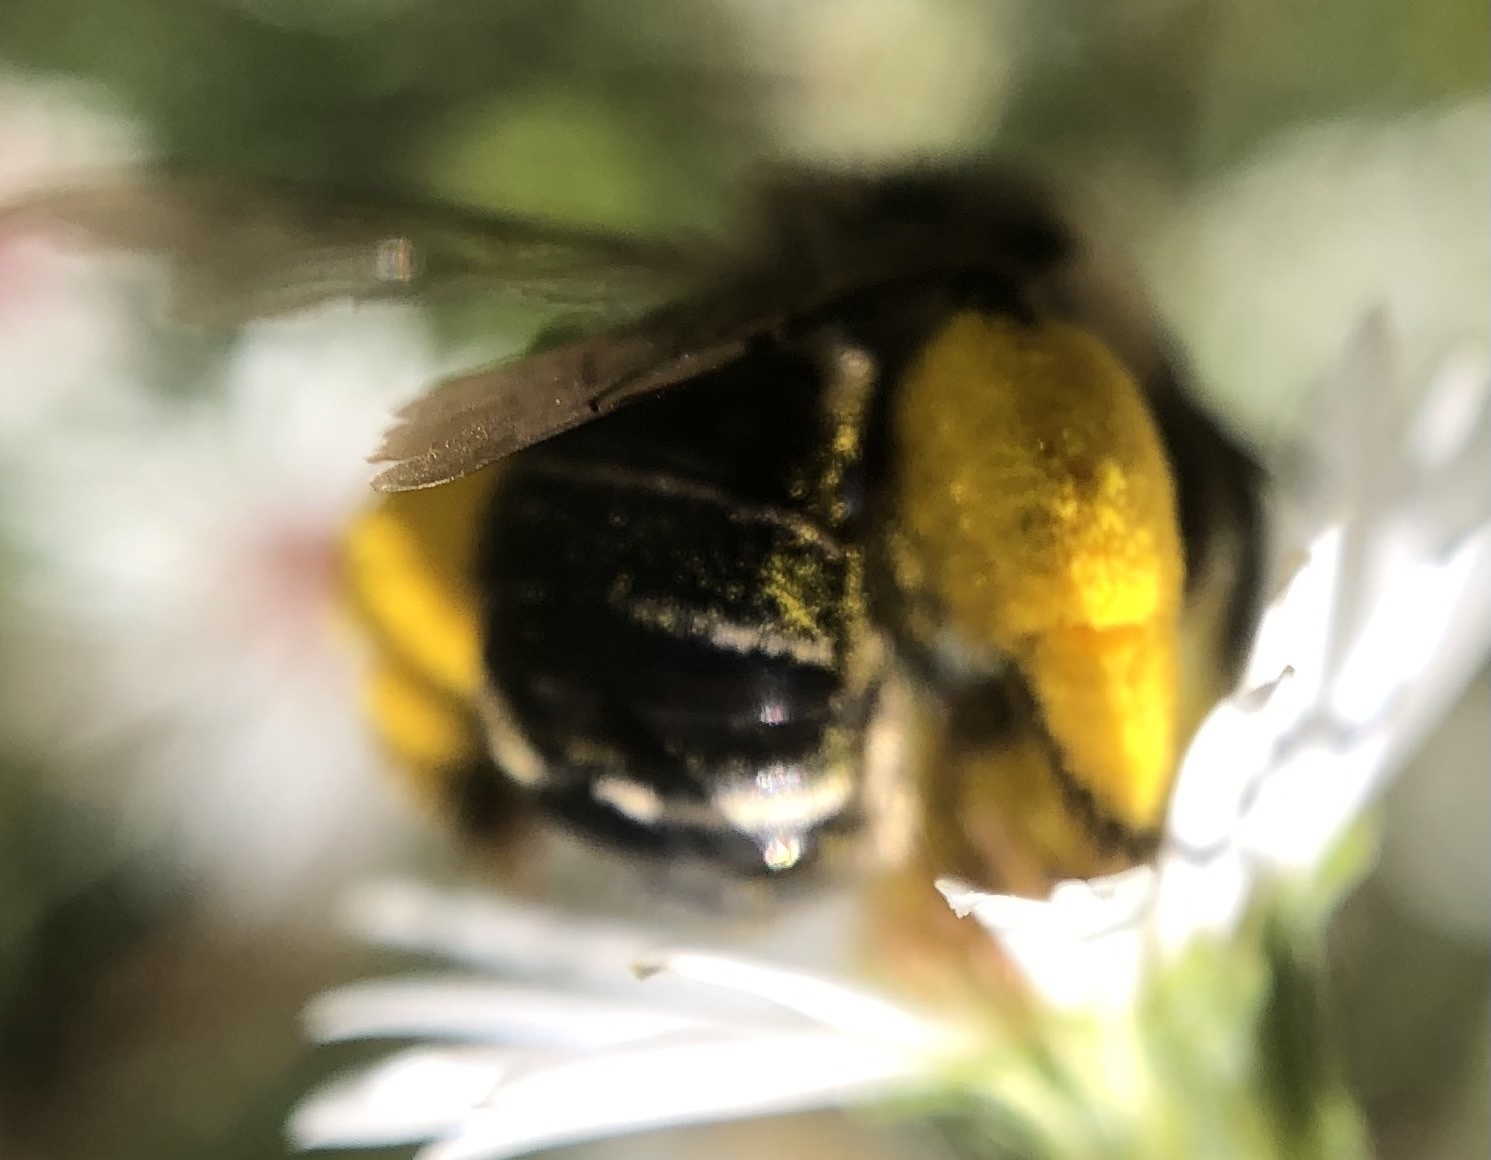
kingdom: Animalia
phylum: Arthropoda
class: Insecta
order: Hymenoptera
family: Apidae
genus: Melissodes
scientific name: Melissodes druriellus
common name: Drury's long-horned bee
